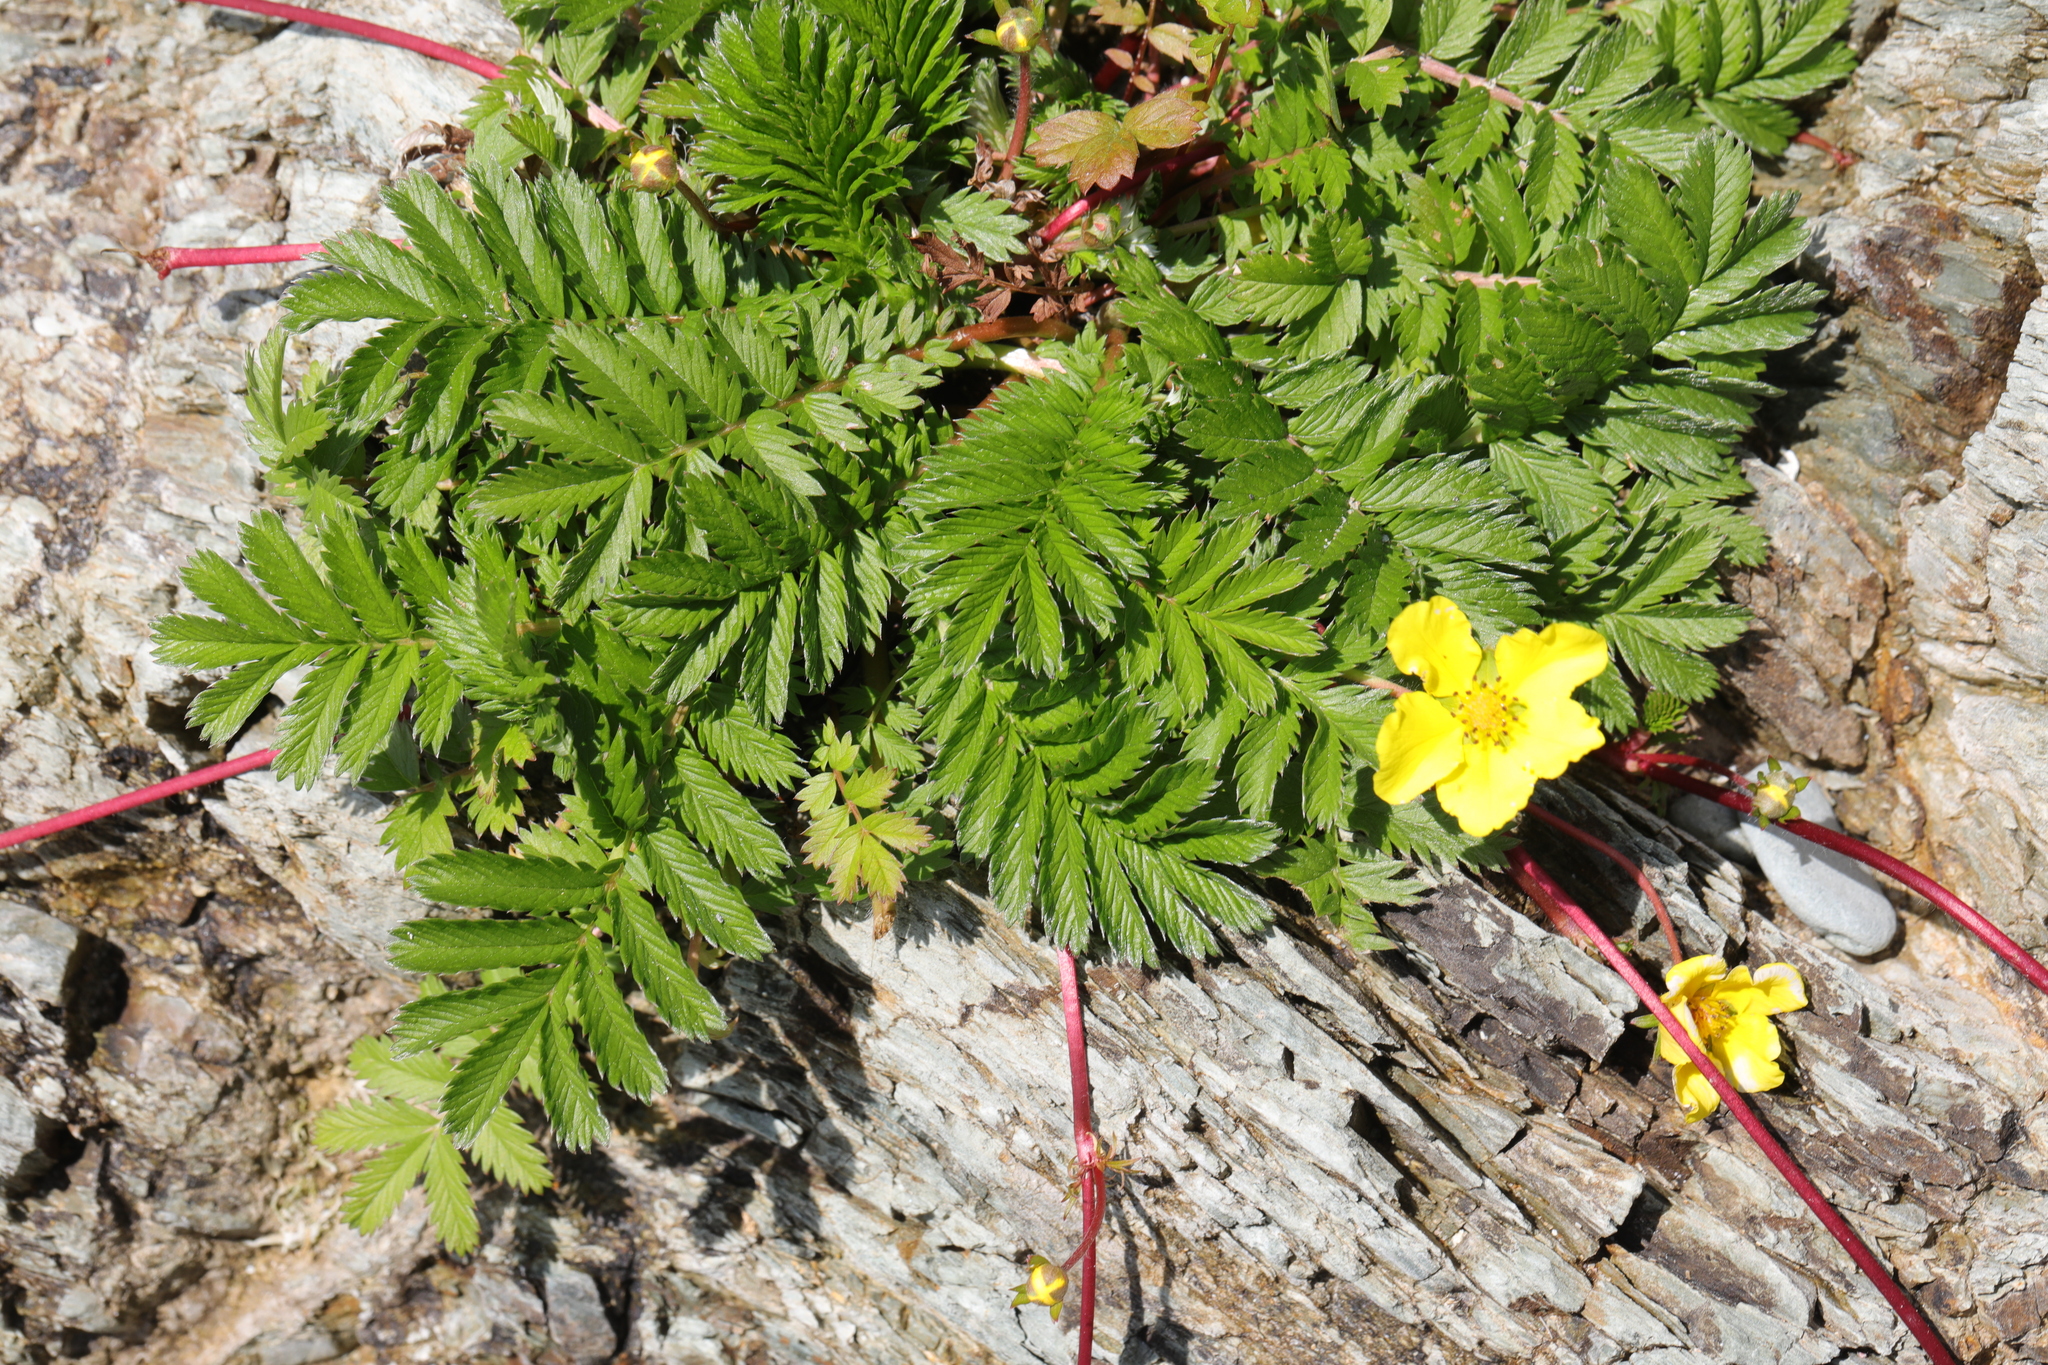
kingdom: Plantae
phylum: Tracheophyta
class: Magnoliopsida
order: Rosales
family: Rosaceae
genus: Argentina
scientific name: Argentina anserina
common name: Common silverweed
